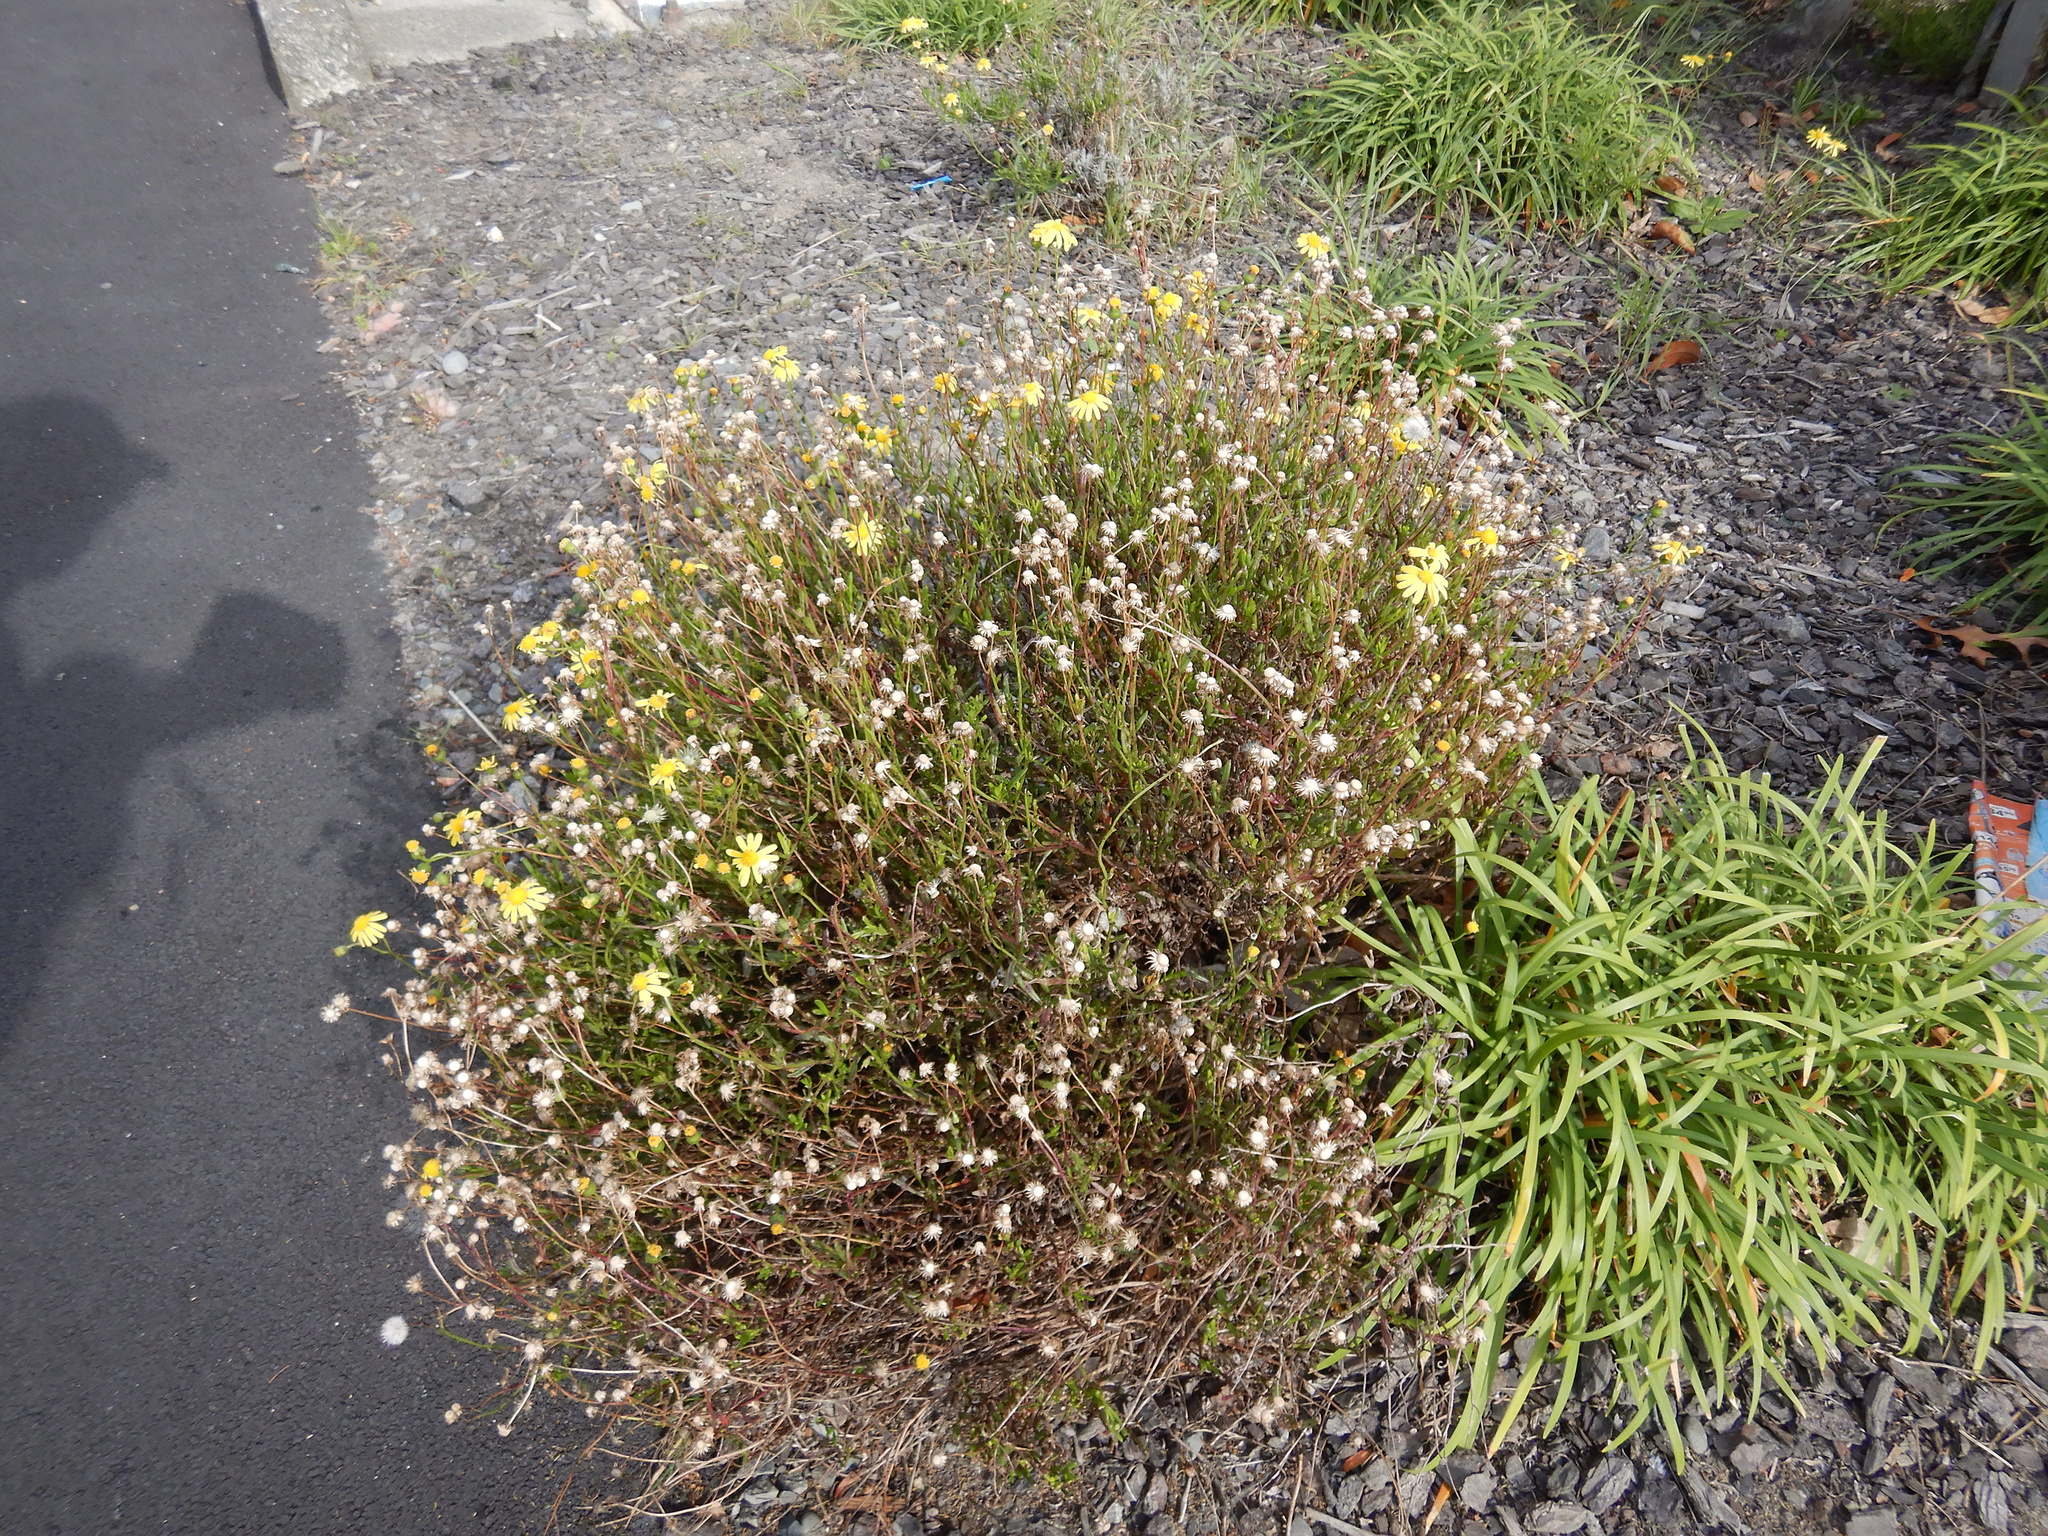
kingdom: Plantae
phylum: Tracheophyta
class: Magnoliopsida
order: Asterales
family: Asteraceae
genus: Senecio
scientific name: Senecio skirrhodon
